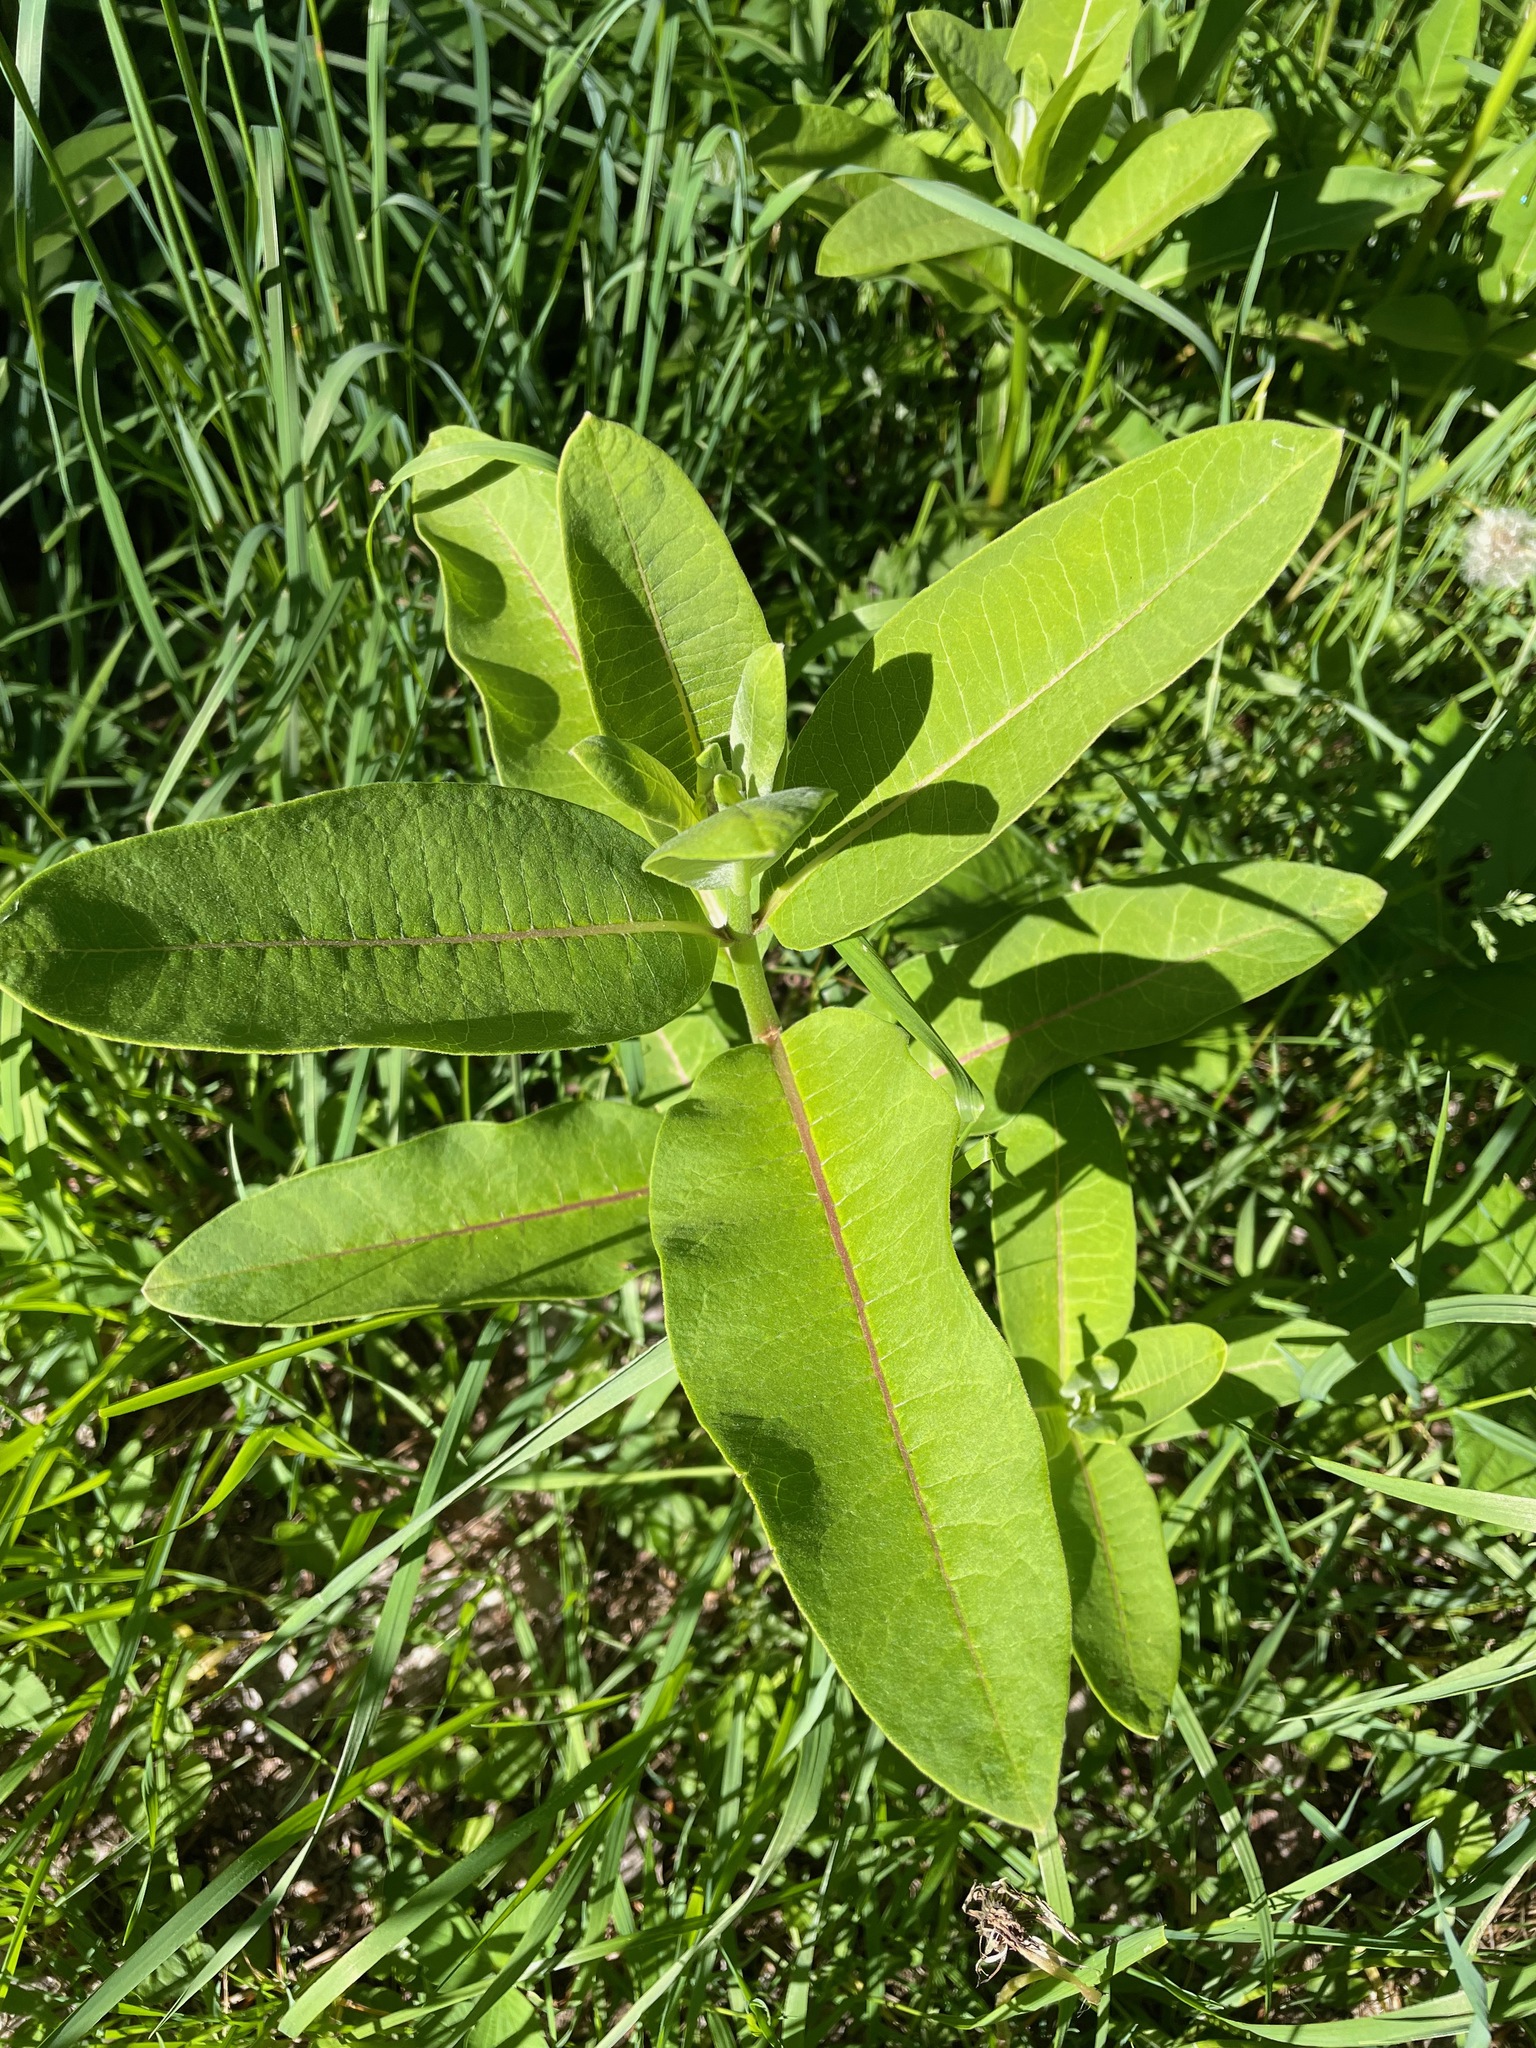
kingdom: Plantae
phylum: Tracheophyta
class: Magnoliopsida
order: Gentianales
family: Apocynaceae
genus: Asclepias
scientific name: Asclepias syriaca
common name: Common milkweed
